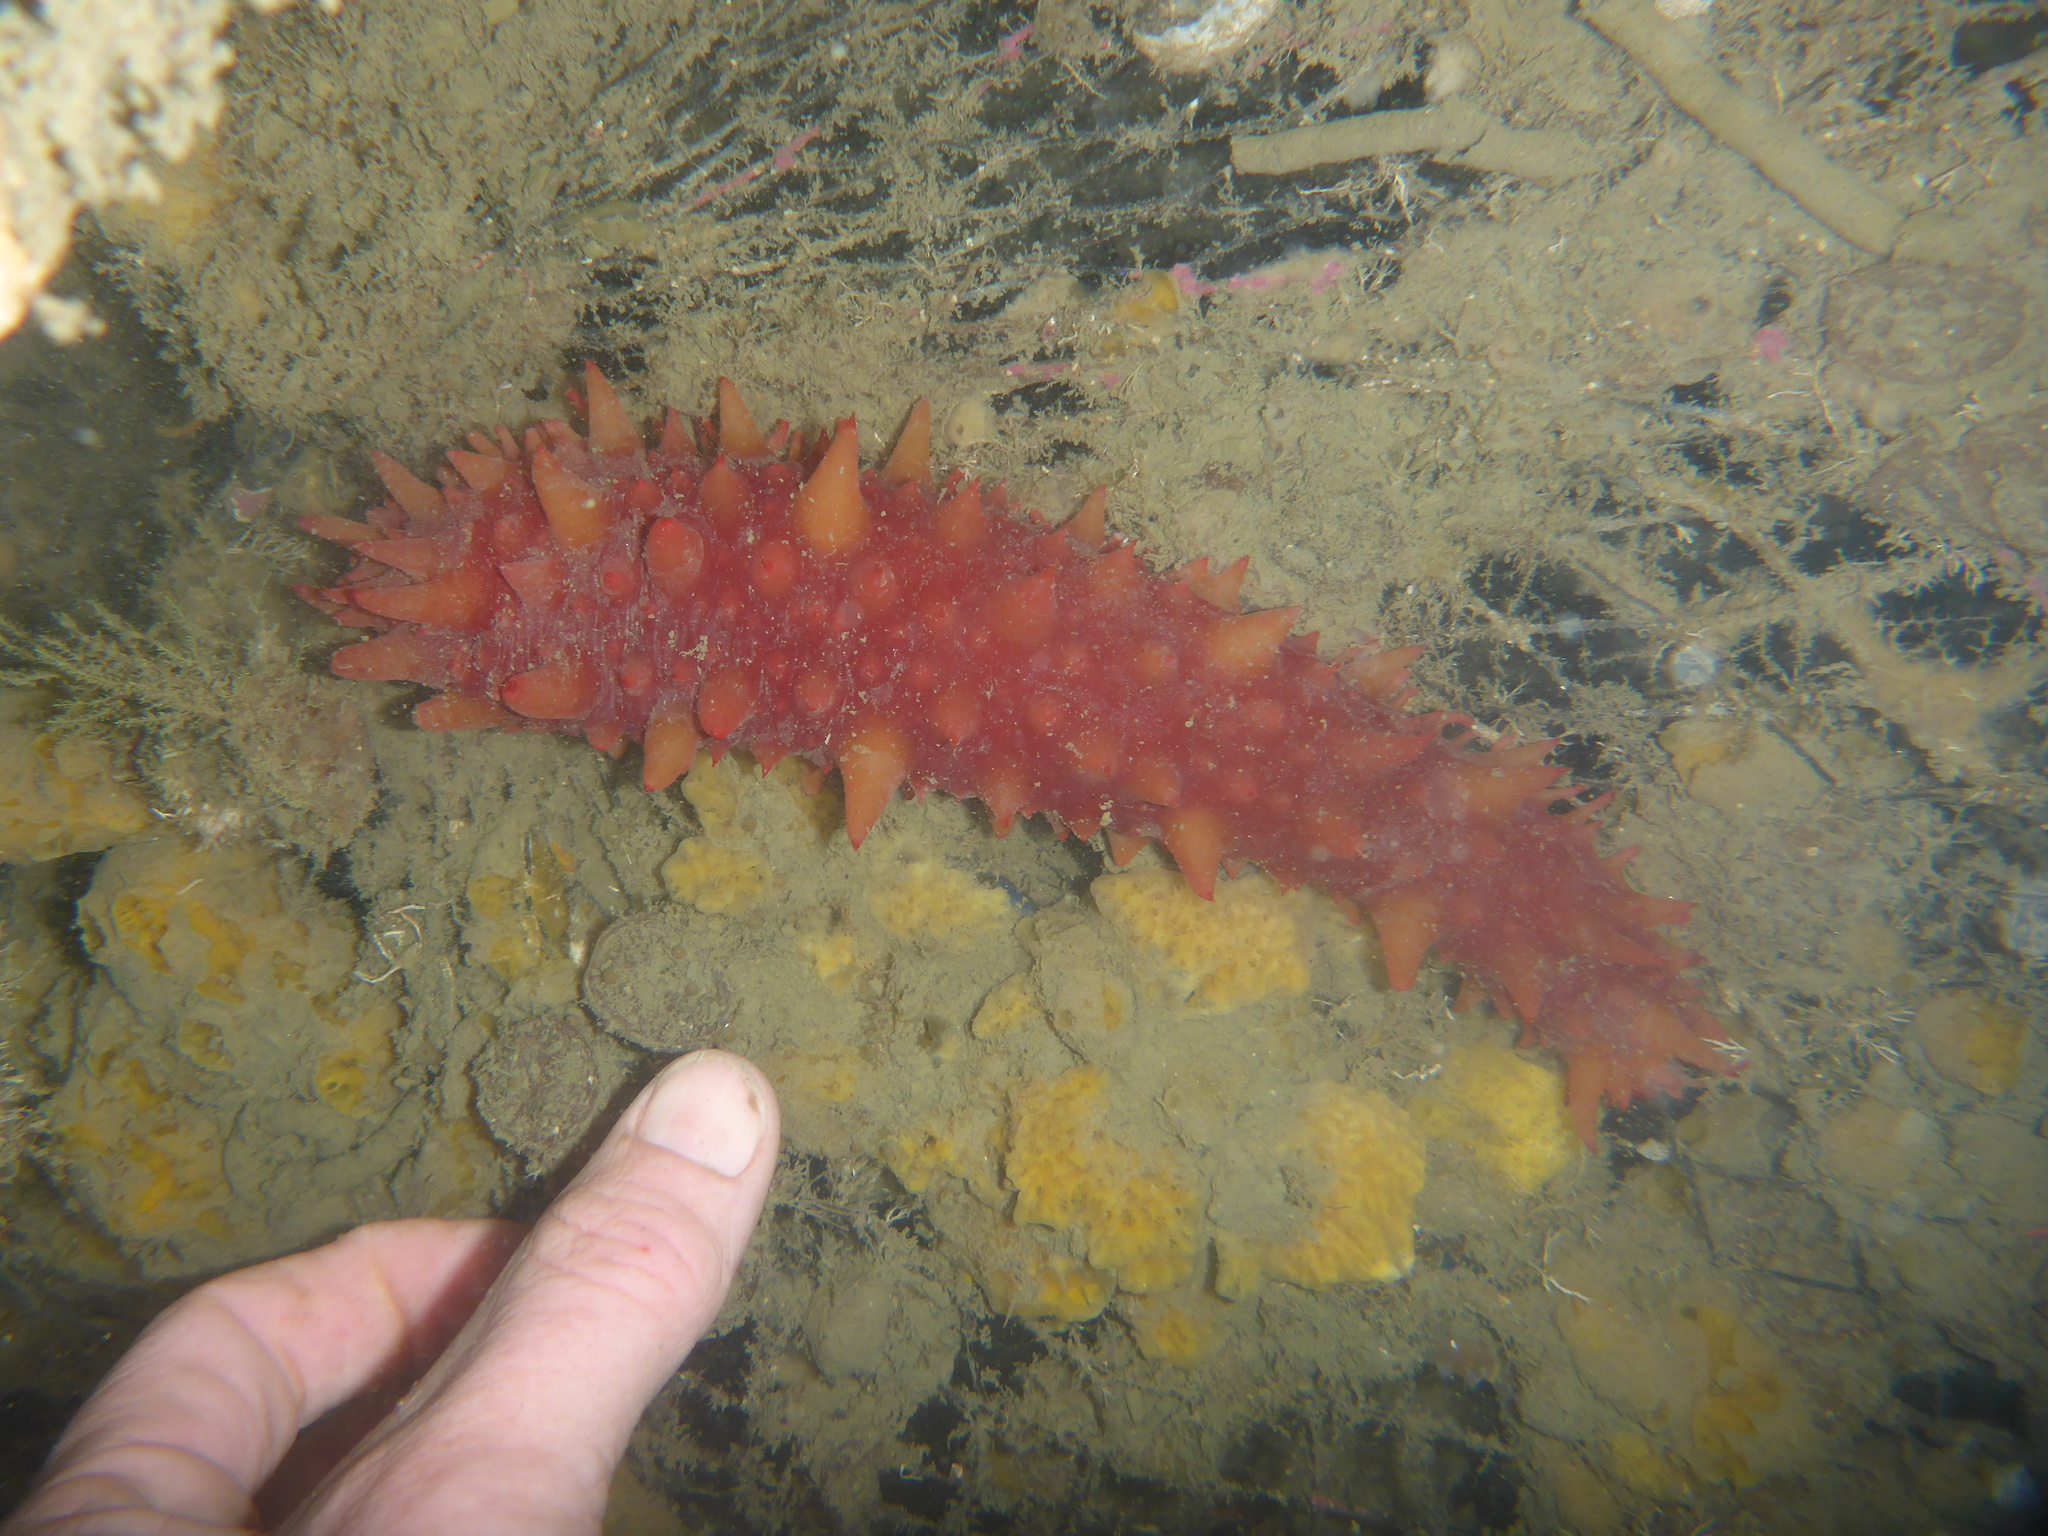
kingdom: Animalia
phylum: Echinodermata
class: Holothuroidea
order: Synallactida
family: Stichopodidae
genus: Apostichopus
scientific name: Apostichopus californicus
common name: California sea cucumber
